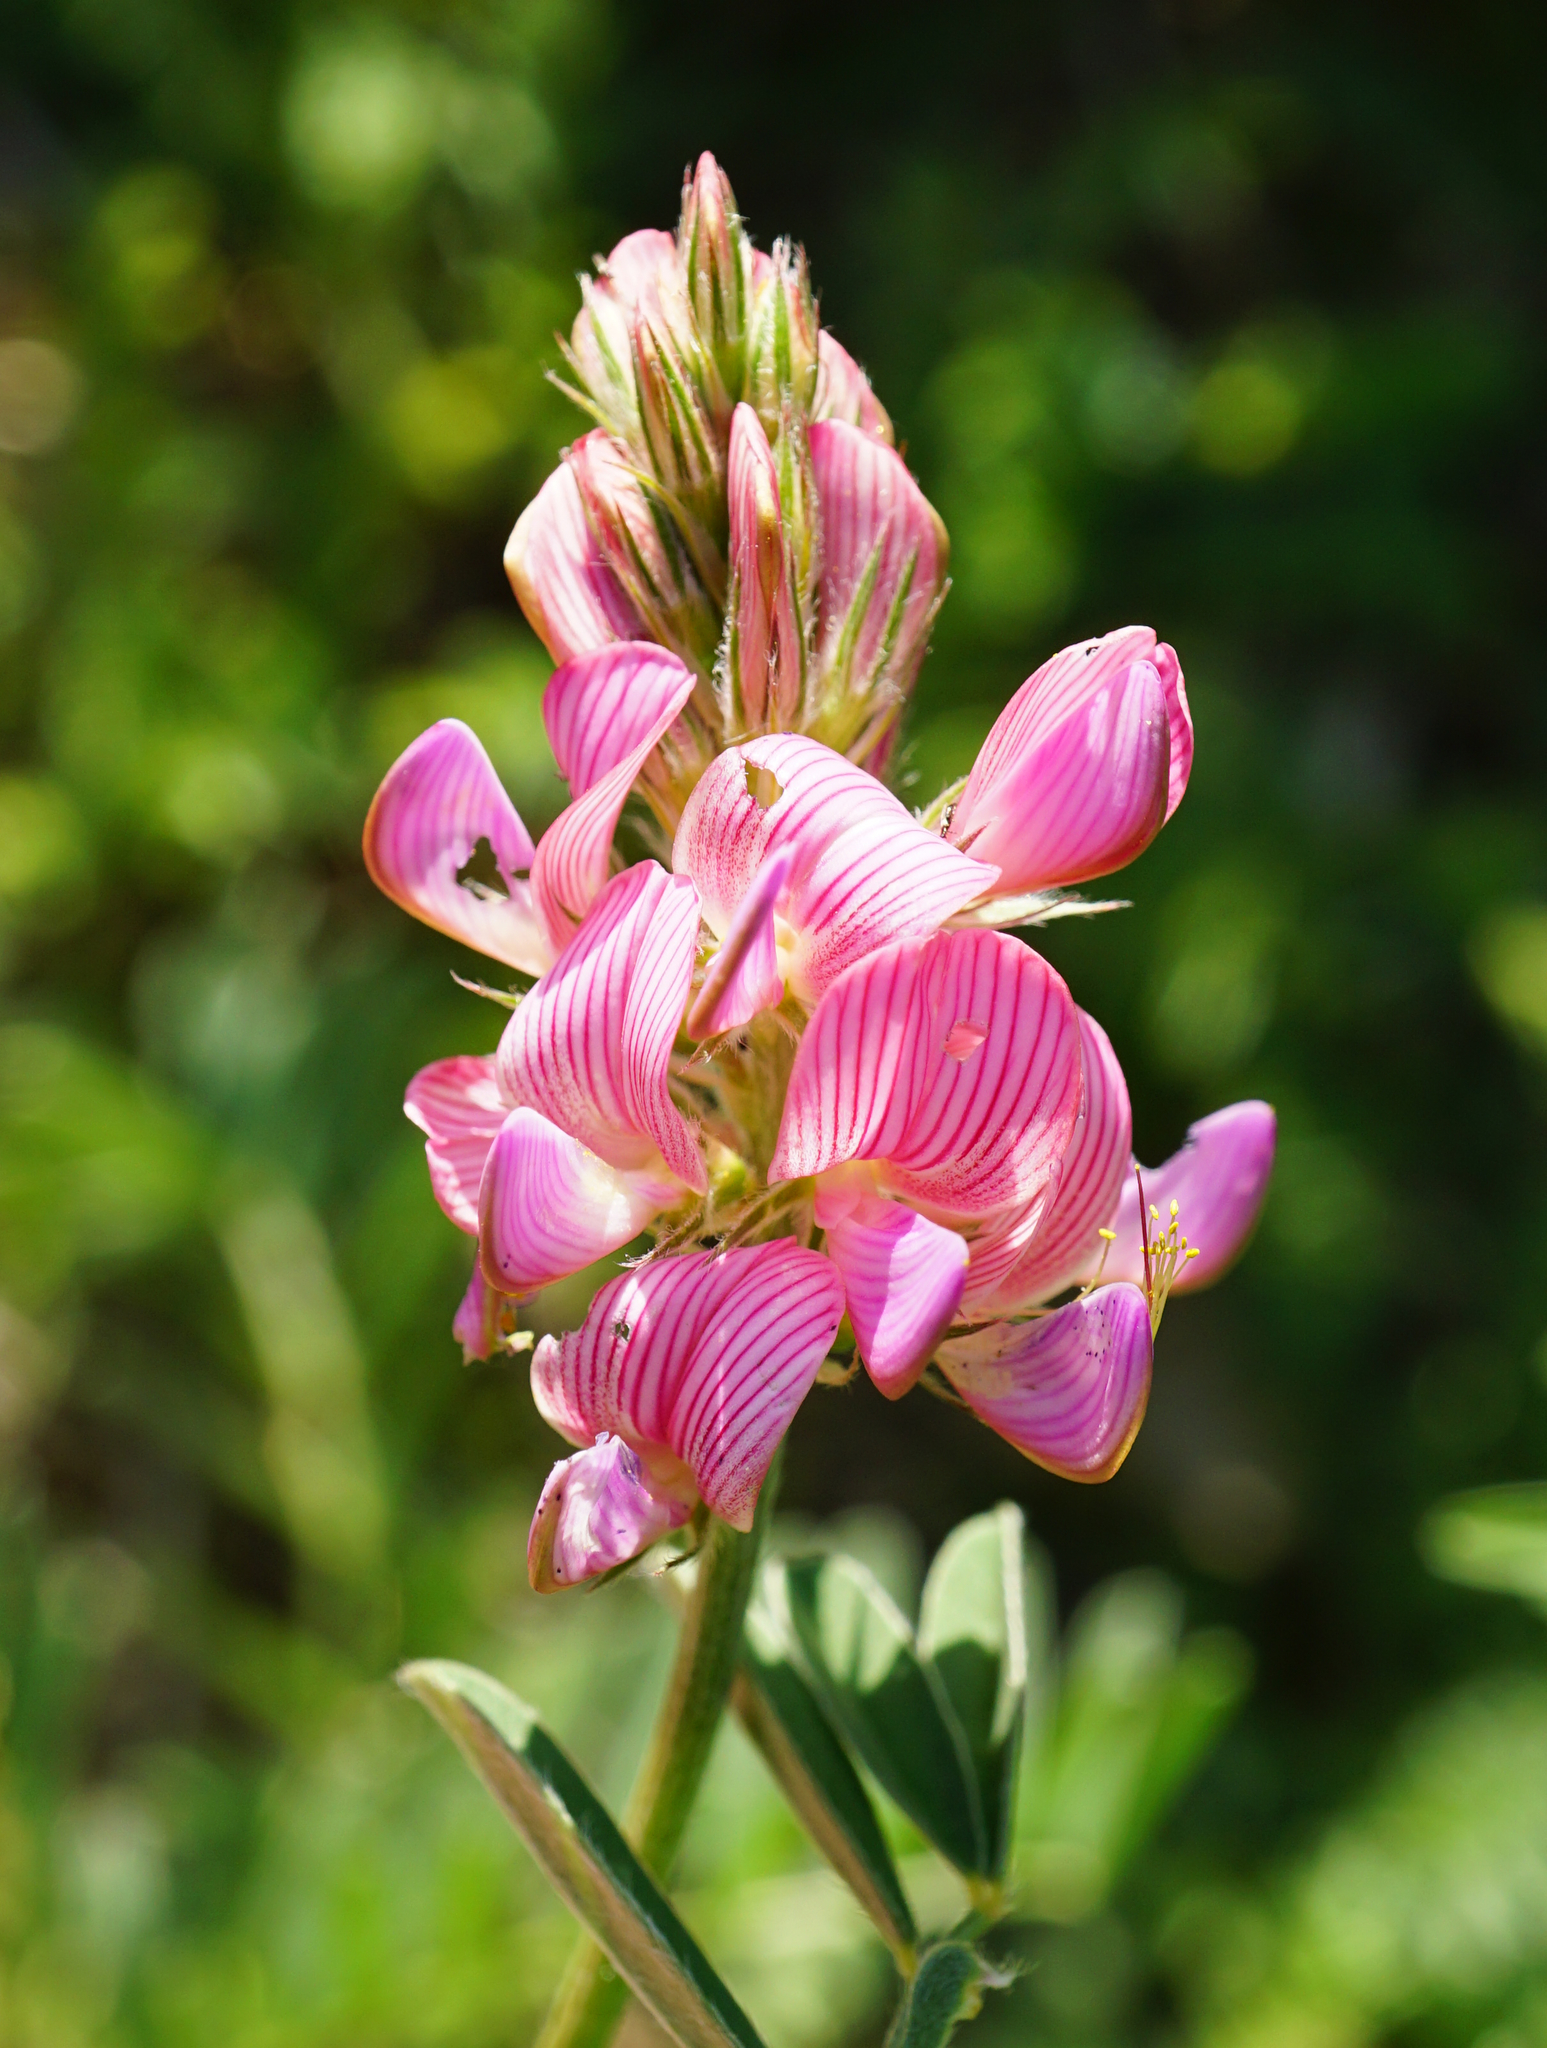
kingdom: Plantae
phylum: Tracheophyta
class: Magnoliopsida
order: Fabales
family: Fabaceae
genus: Onobrychis
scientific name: Onobrychis viciifolia
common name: Sainfoin
